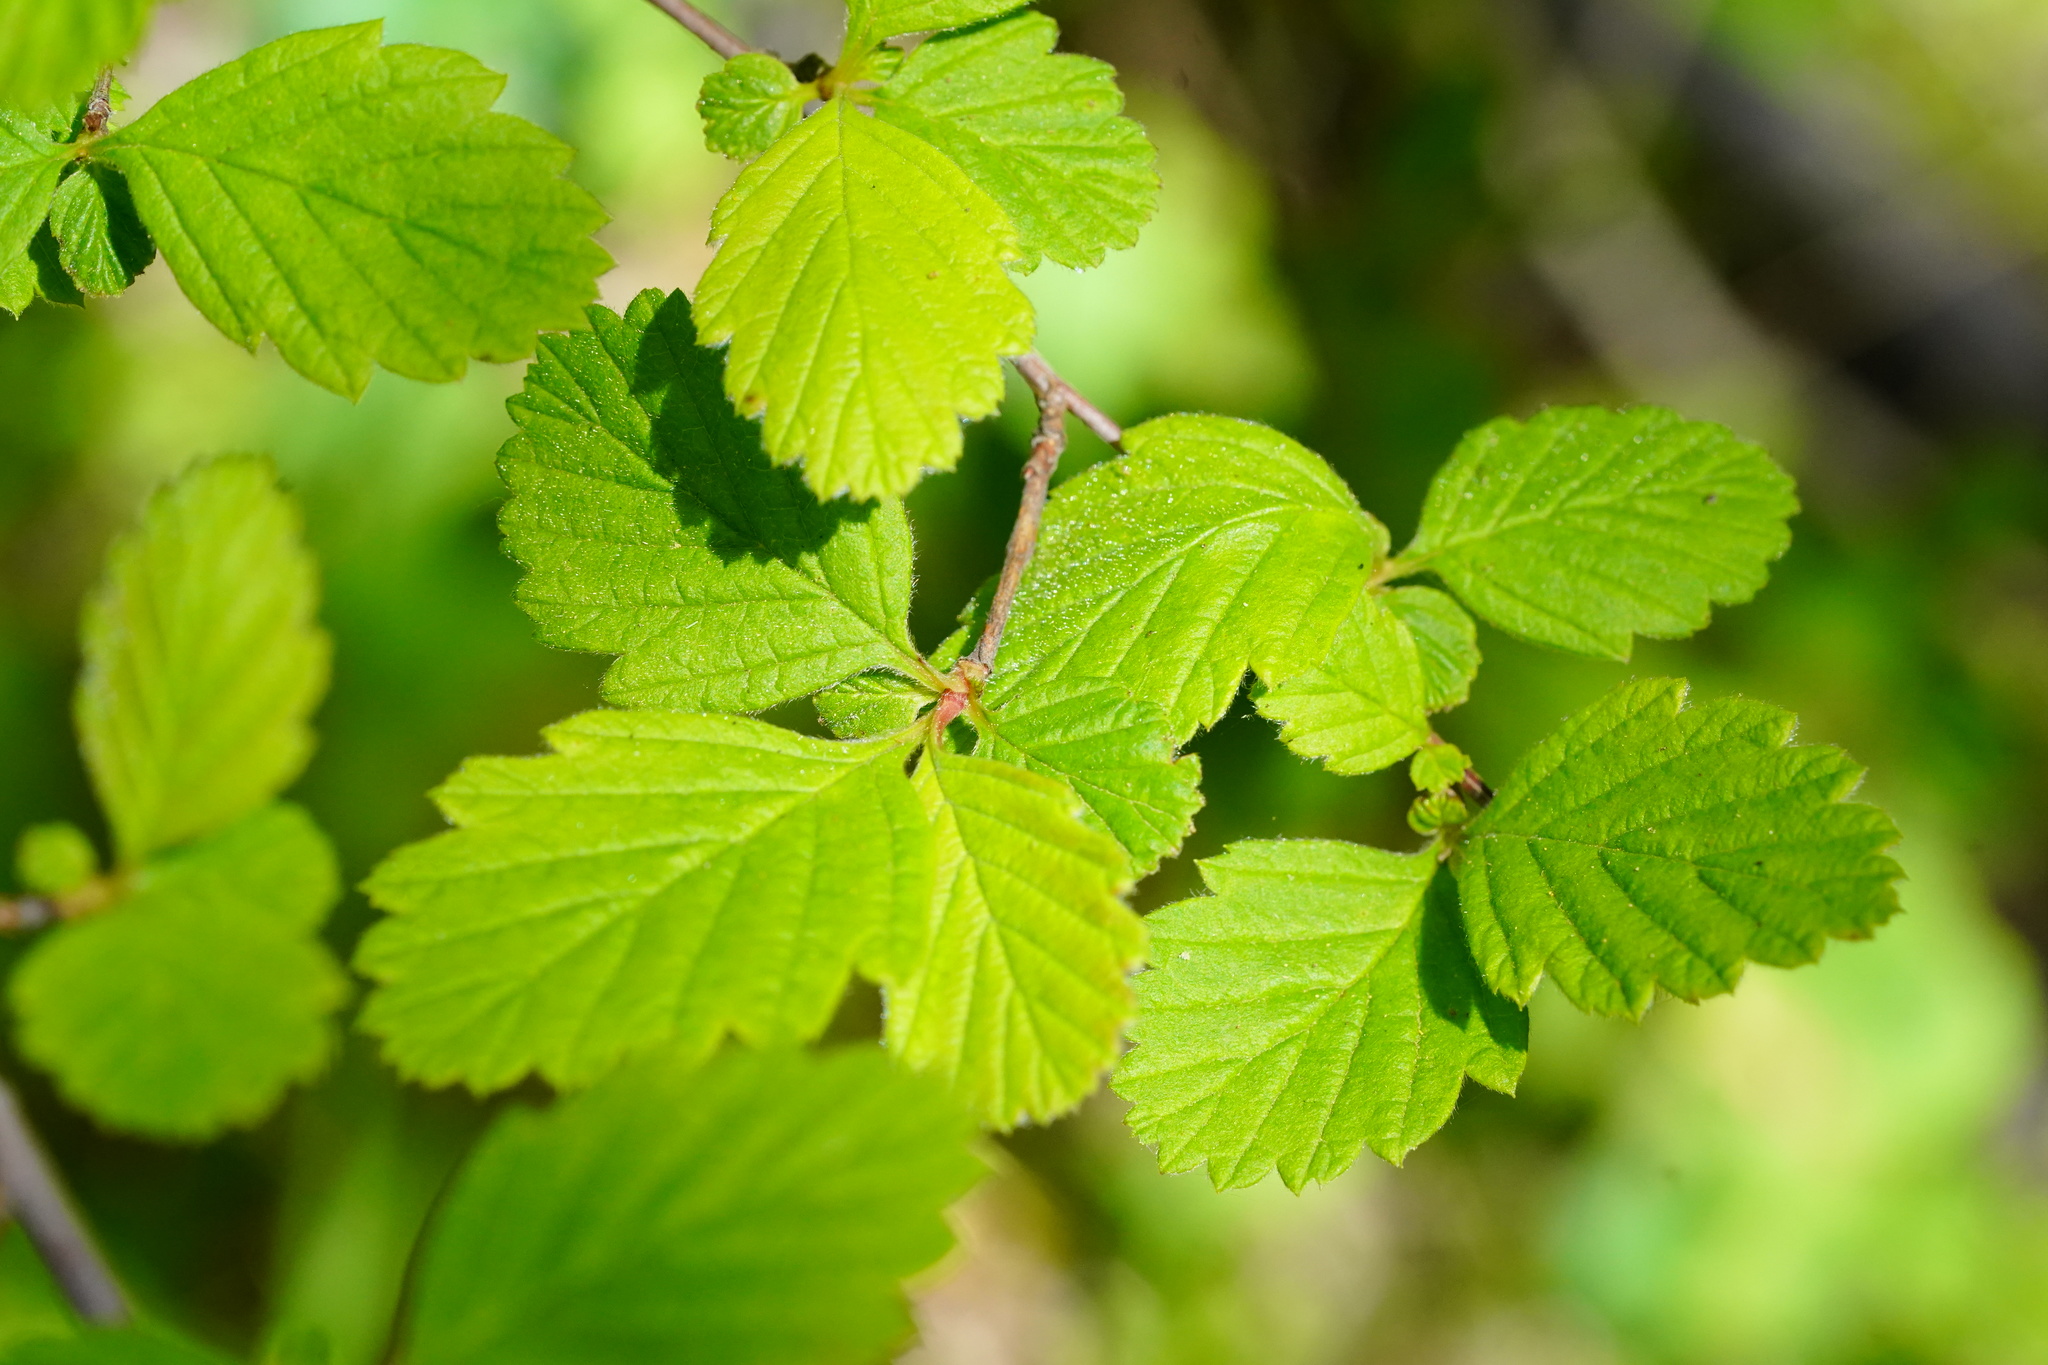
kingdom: Plantae
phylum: Tracheophyta
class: Magnoliopsida
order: Rosales
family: Rosaceae
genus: Holodiscus
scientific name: Holodiscus discolor
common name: Oceanspray
